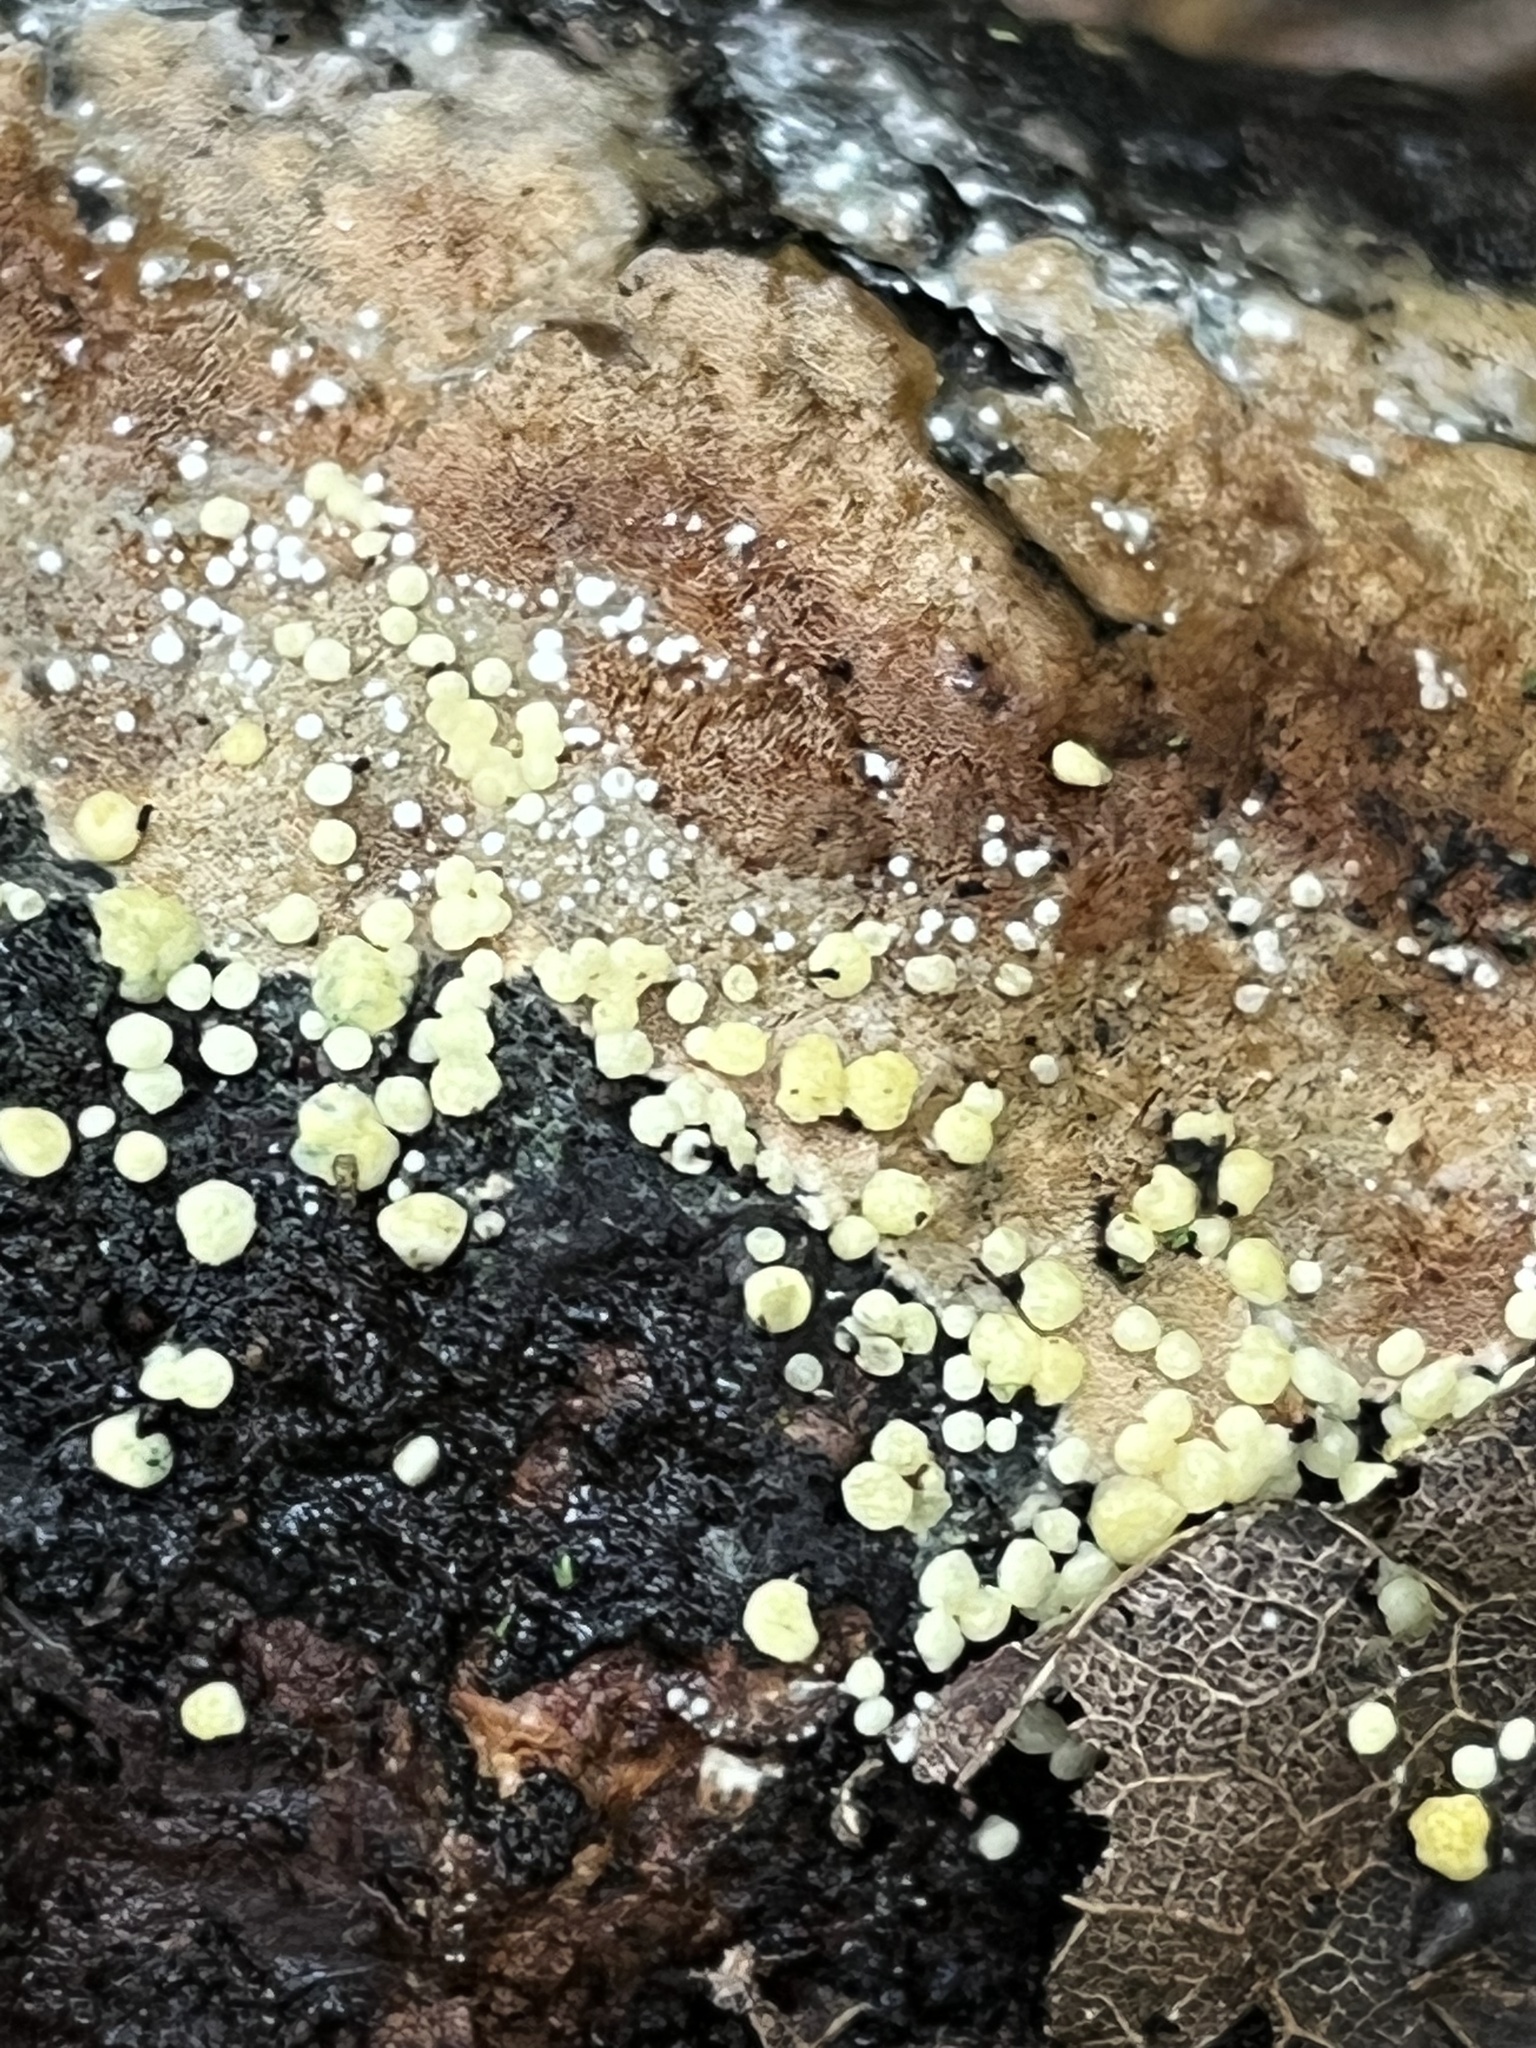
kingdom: Fungi
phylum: Ascomycota
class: Sordariomycetes
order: Hypocreales
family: Hypocreaceae
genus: Trichoderma
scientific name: Trichoderma gelatinosum
